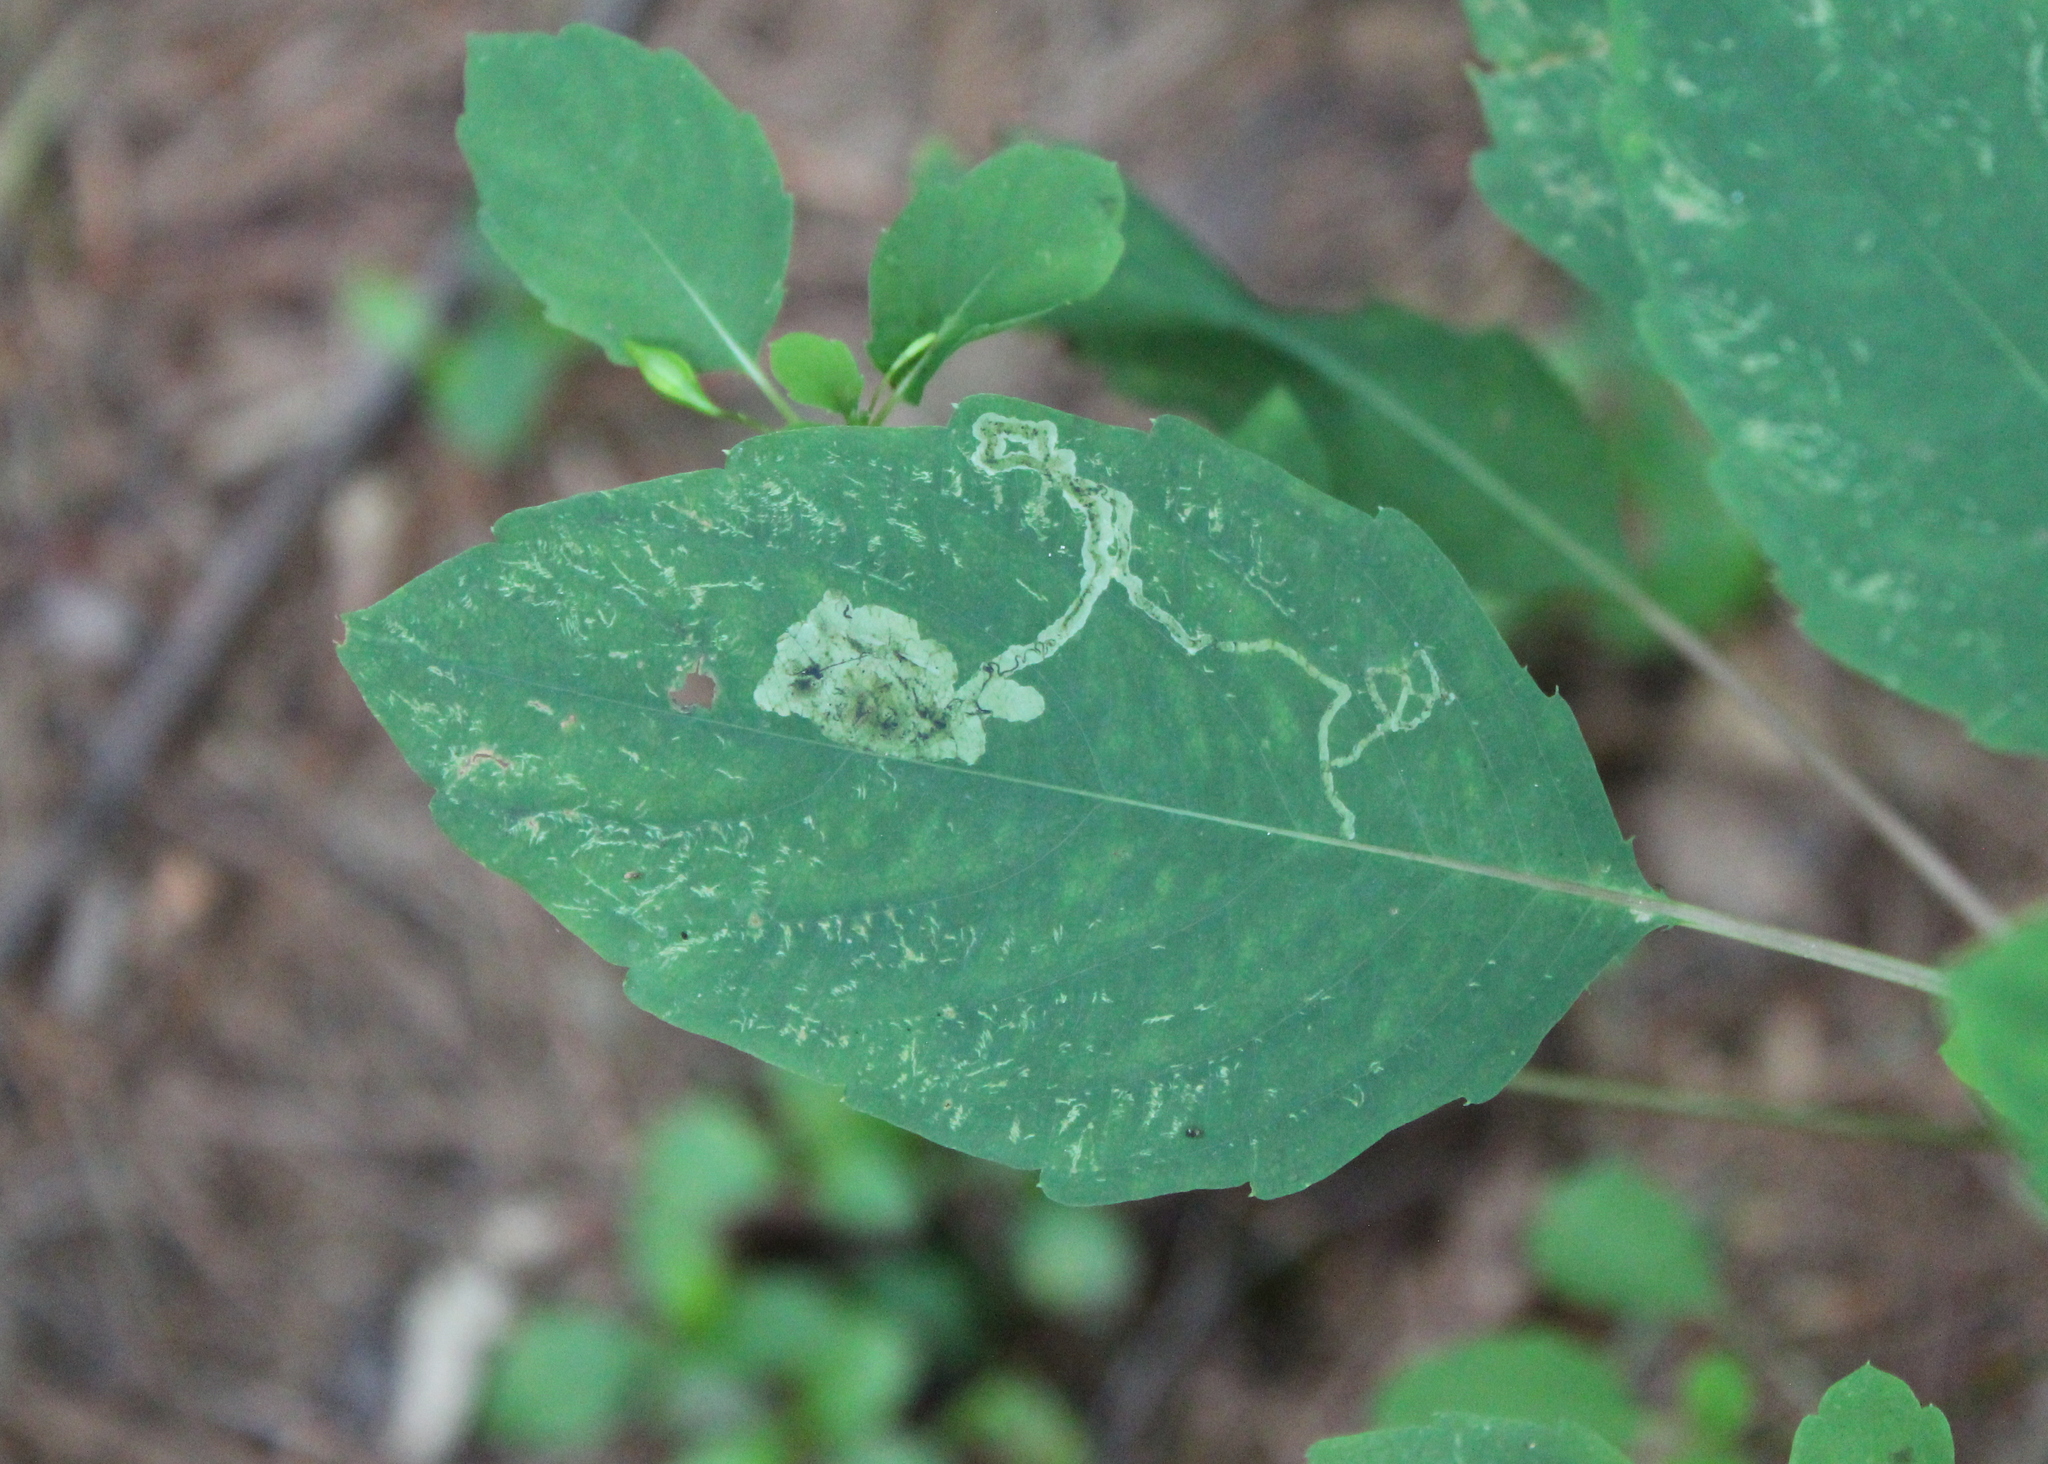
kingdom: Animalia
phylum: Arthropoda
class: Insecta
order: Diptera
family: Agromyzidae
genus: Phytoliriomyza
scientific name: Phytoliriomyza melampyga
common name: Jewelweed leaf-miner fly
